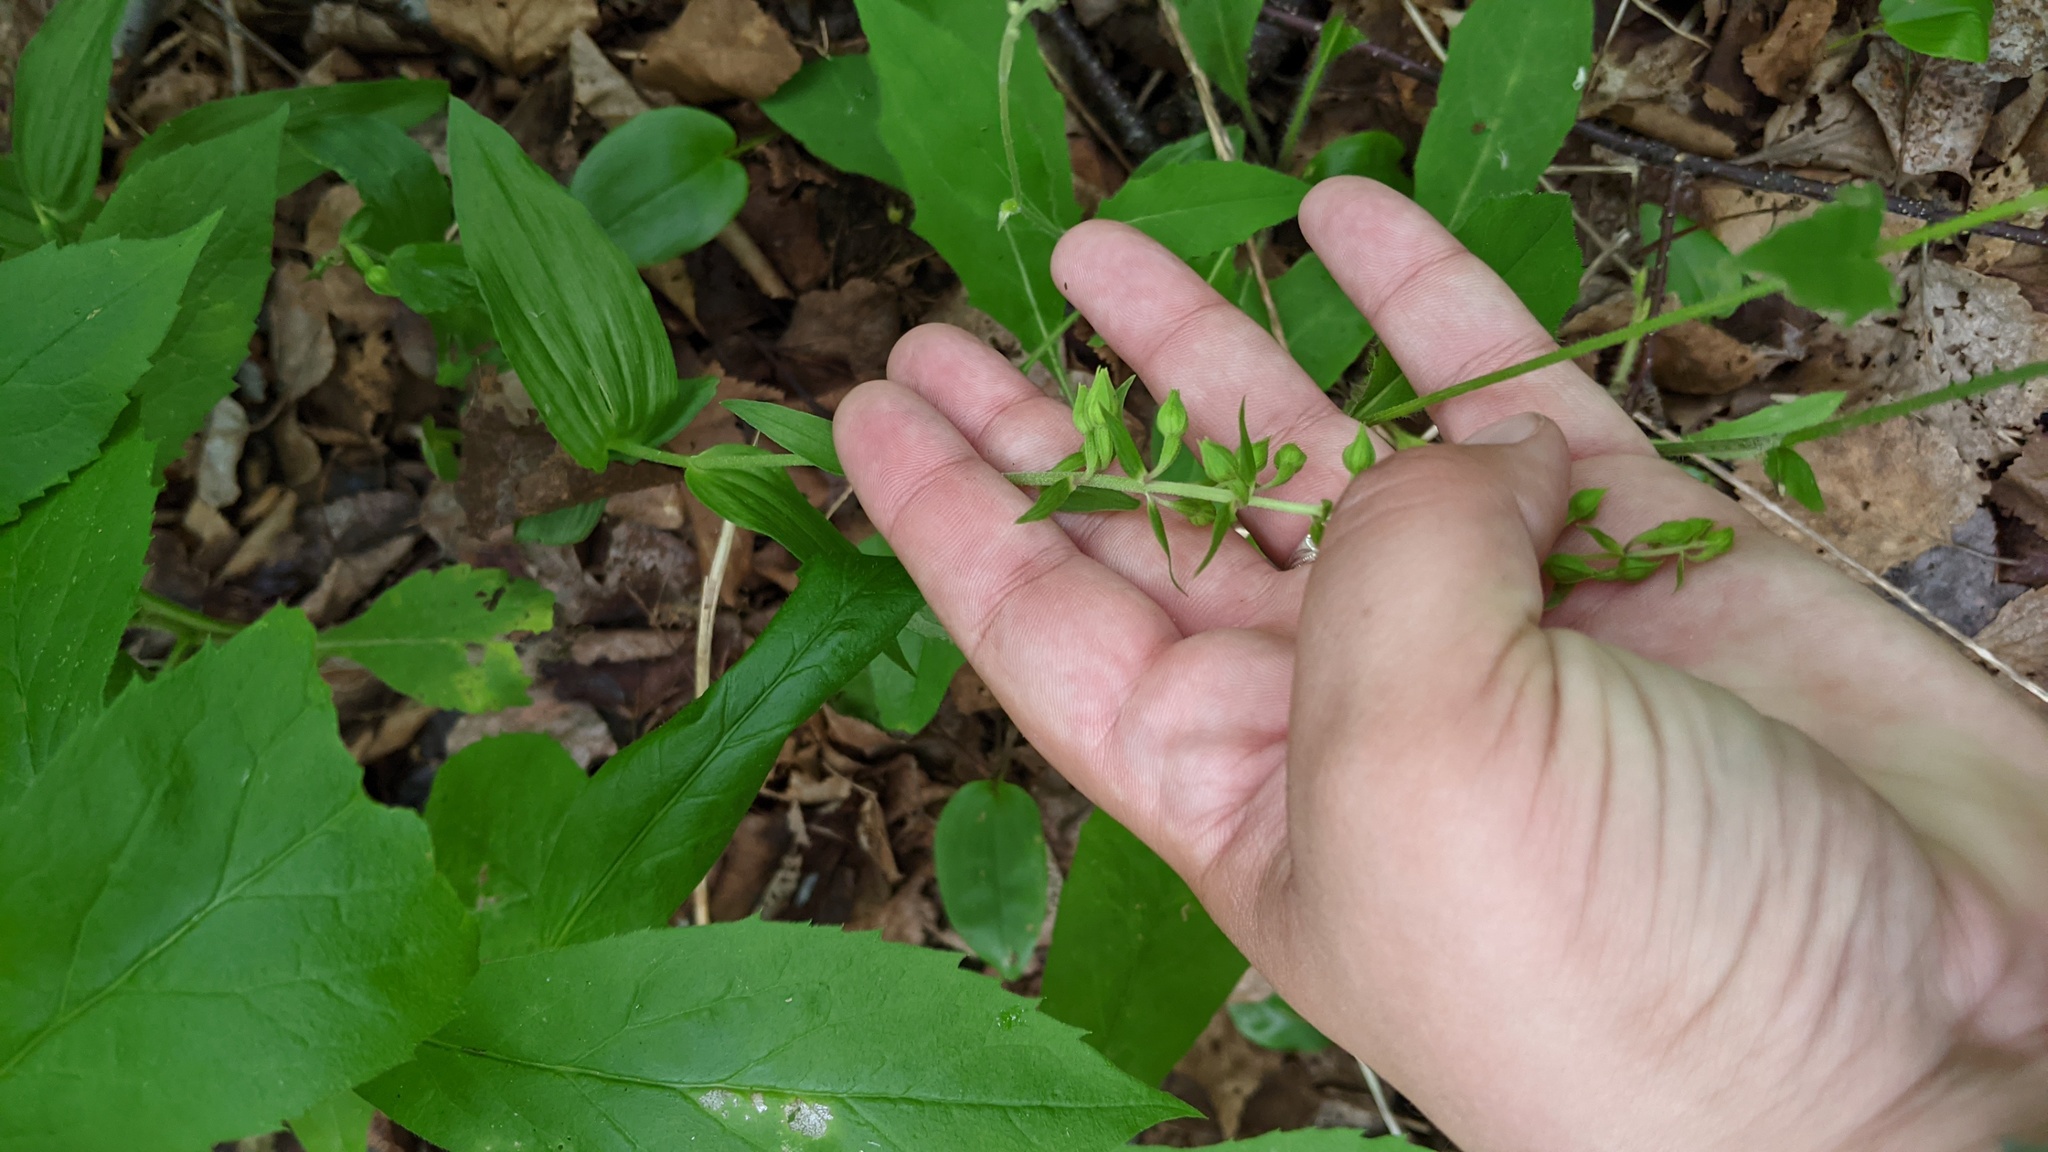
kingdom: Plantae
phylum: Tracheophyta
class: Liliopsida
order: Asparagales
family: Orchidaceae
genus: Epipactis
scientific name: Epipactis helleborine
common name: Broad-leaved helleborine
